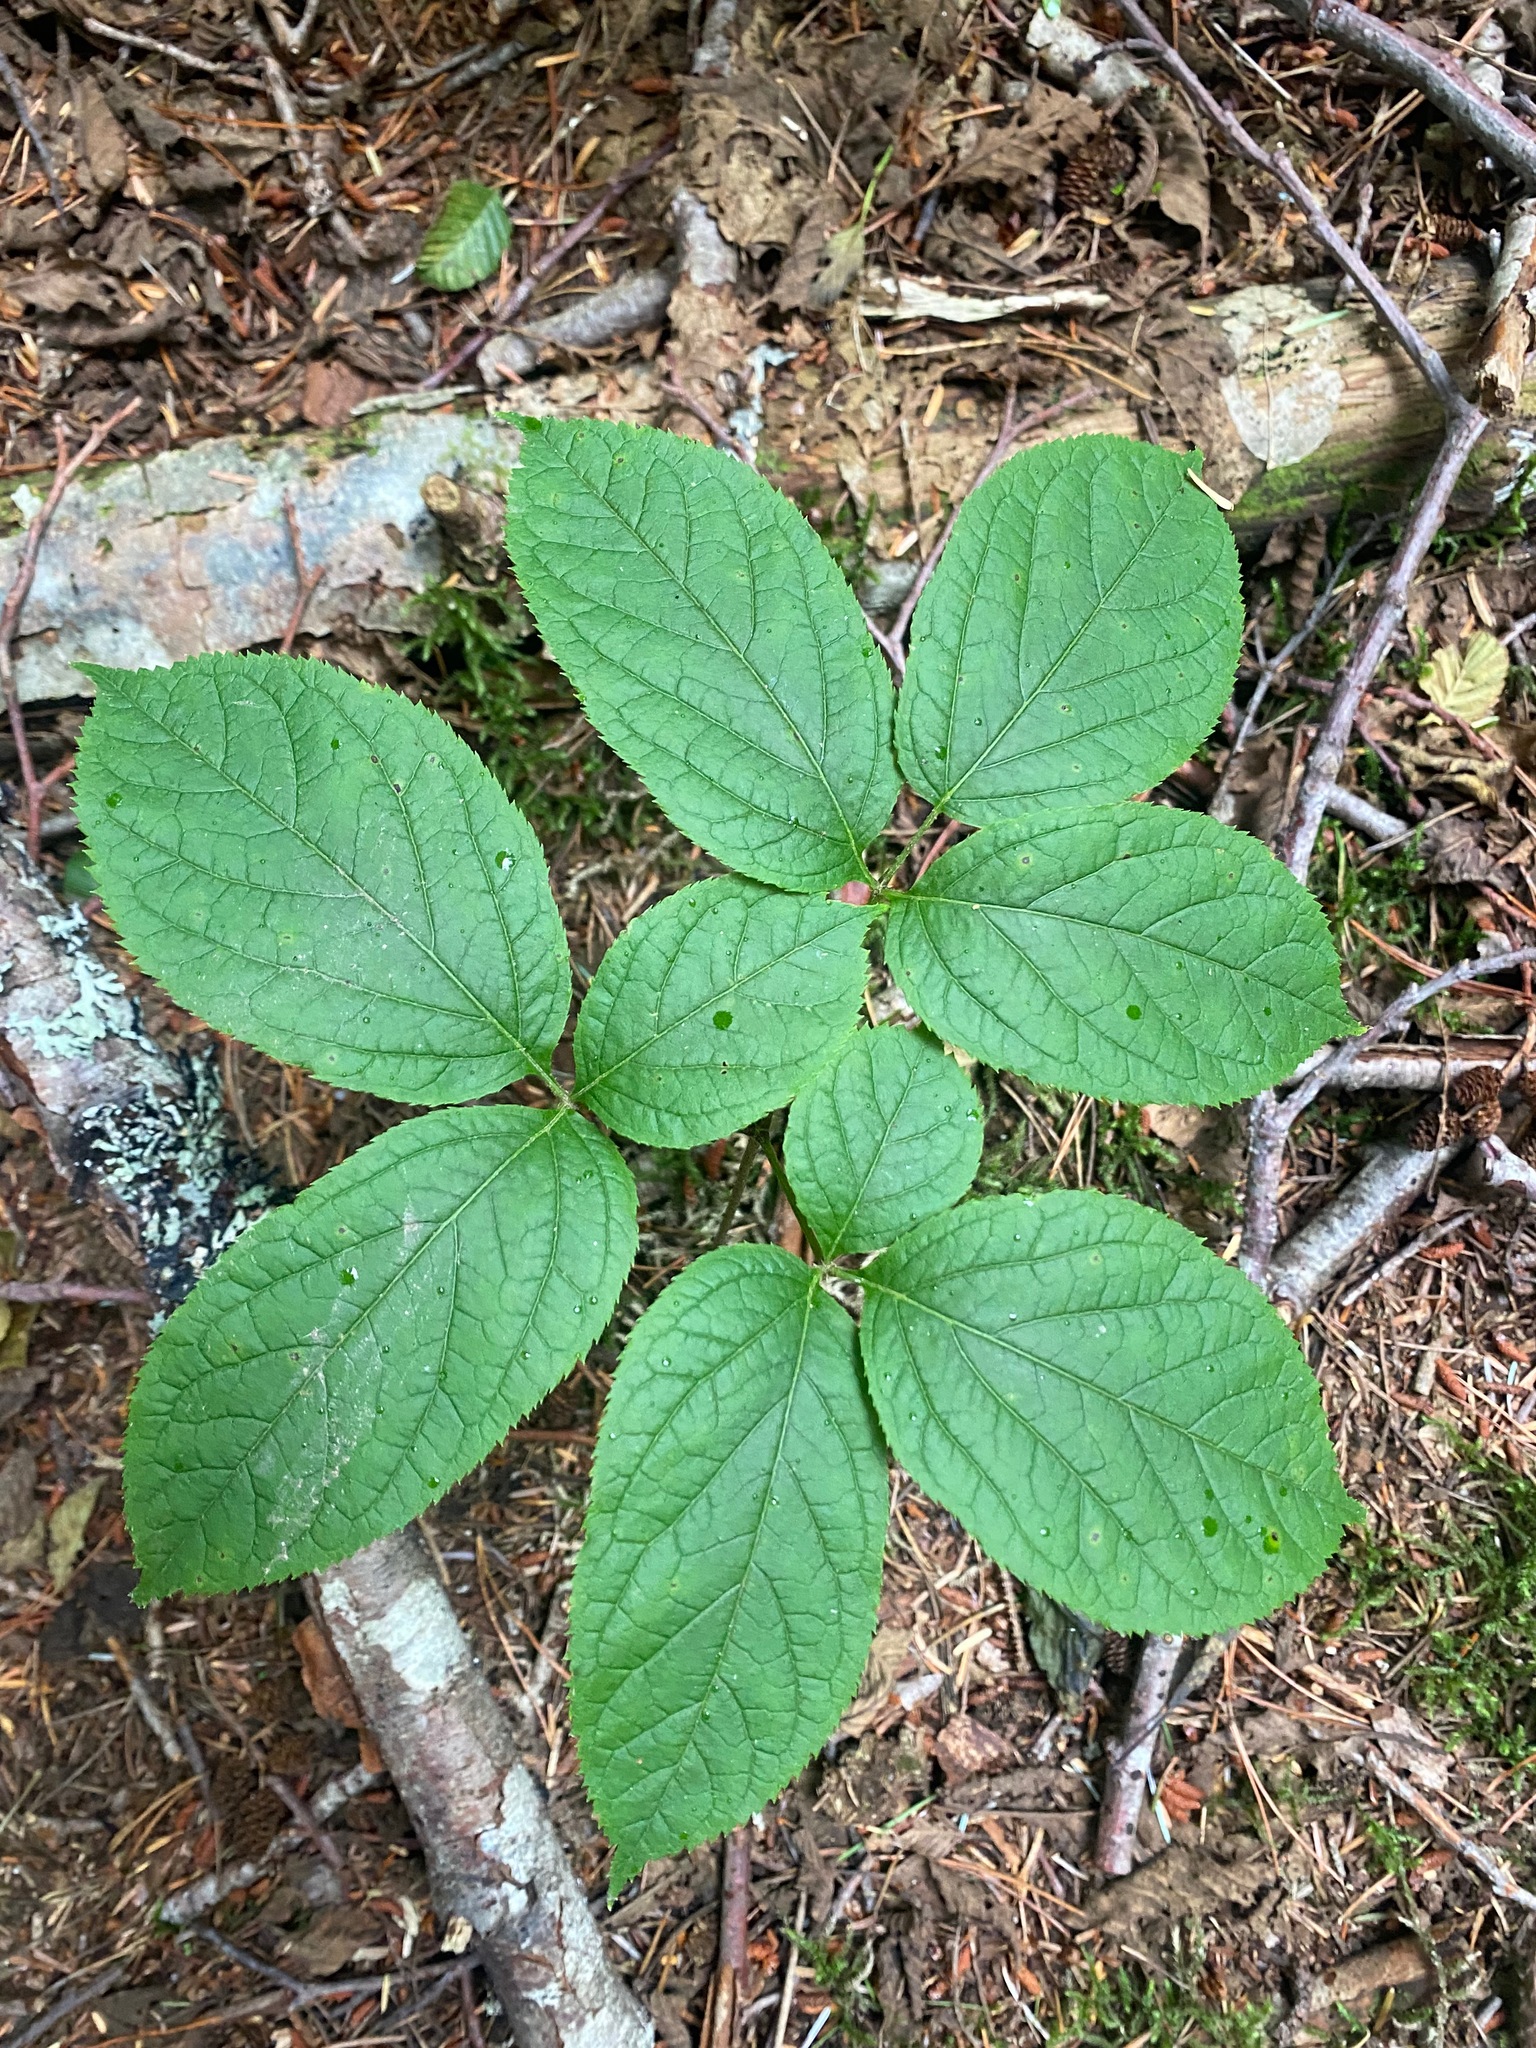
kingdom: Plantae
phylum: Tracheophyta
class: Magnoliopsida
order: Apiales
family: Araliaceae
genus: Aralia
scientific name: Aralia nudicaulis
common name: Wild sarsaparilla
